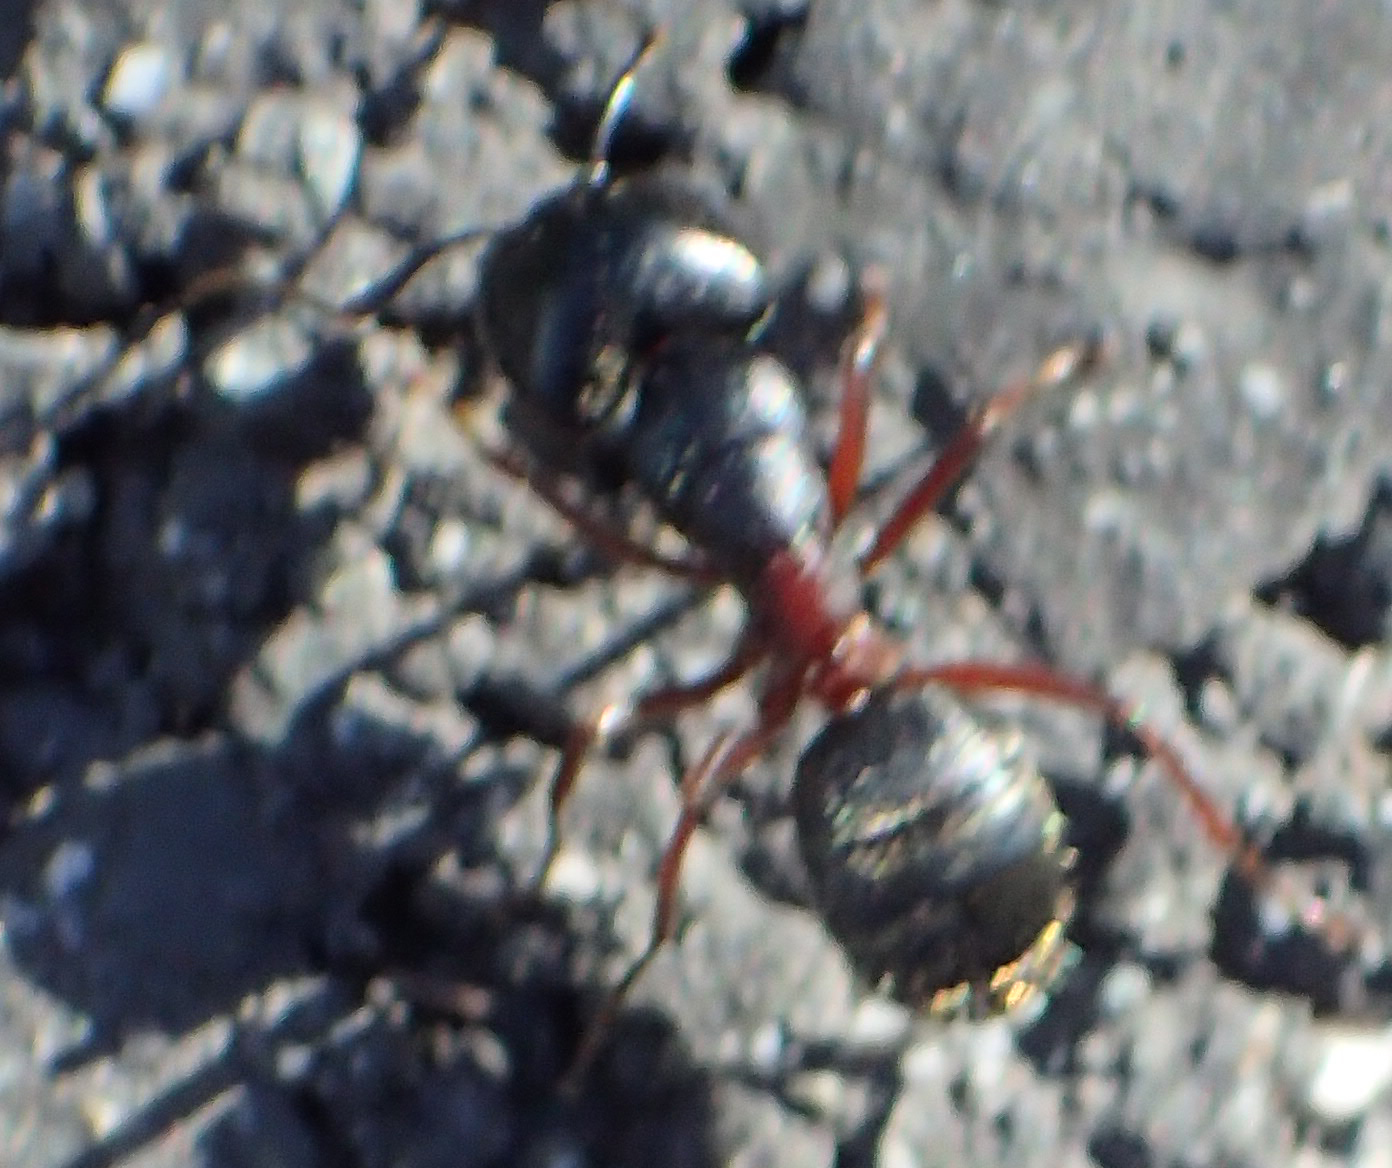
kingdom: Animalia
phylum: Arthropoda
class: Insecta
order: Hymenoptera
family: Formicidae
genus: Camponotus
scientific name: Camponotus herculeanus
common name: Hercules ant
